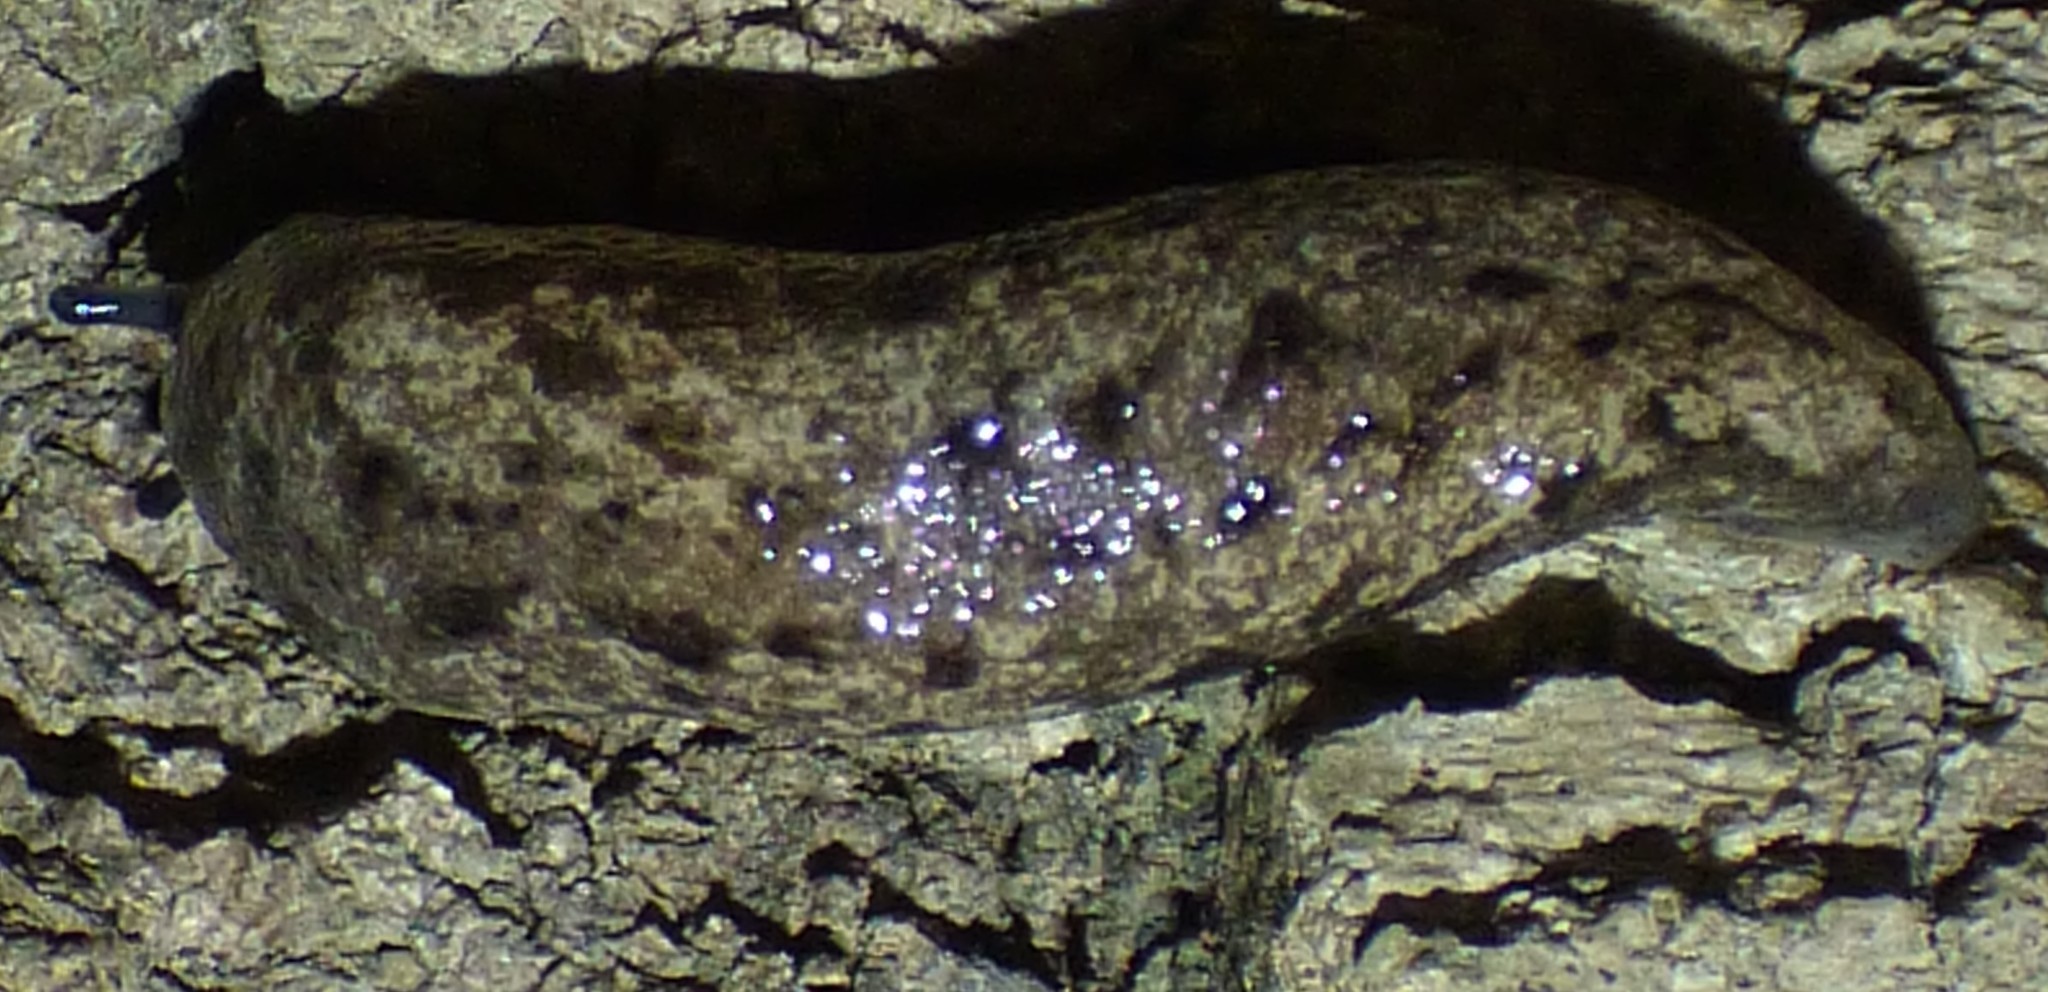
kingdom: Animalia
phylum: Mollusca
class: Gastropoda
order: Stylommatophora
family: Philomycidae
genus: Megapallifera
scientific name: Megapallifera mutabilis
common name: Changeable mantleslug
